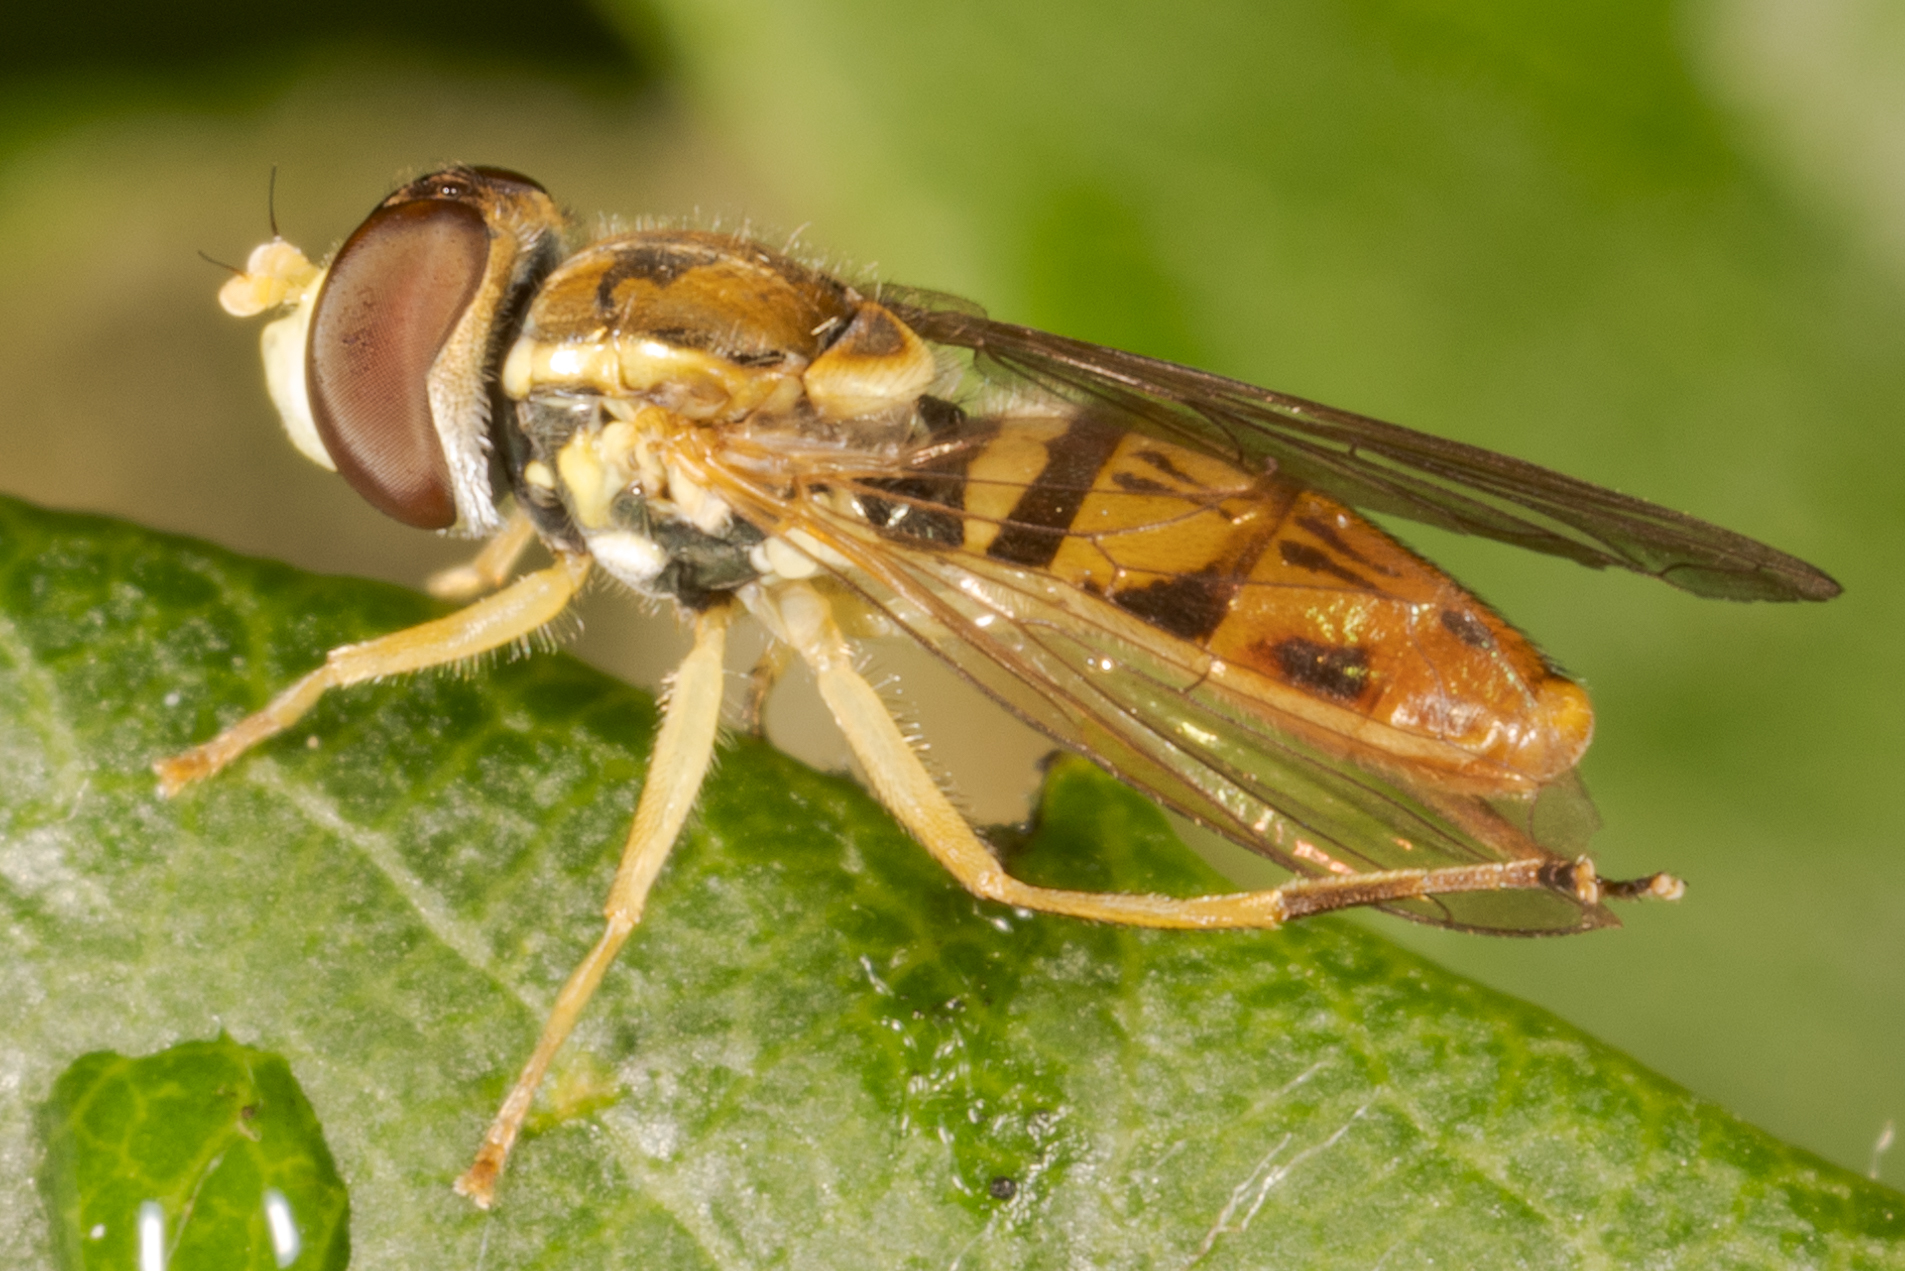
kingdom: Animalia
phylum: Arthropoda
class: Insecta
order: Diptera
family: Syrphidae
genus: Toxomerus
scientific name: Toxomerus marginatus
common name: Syrphid fly
